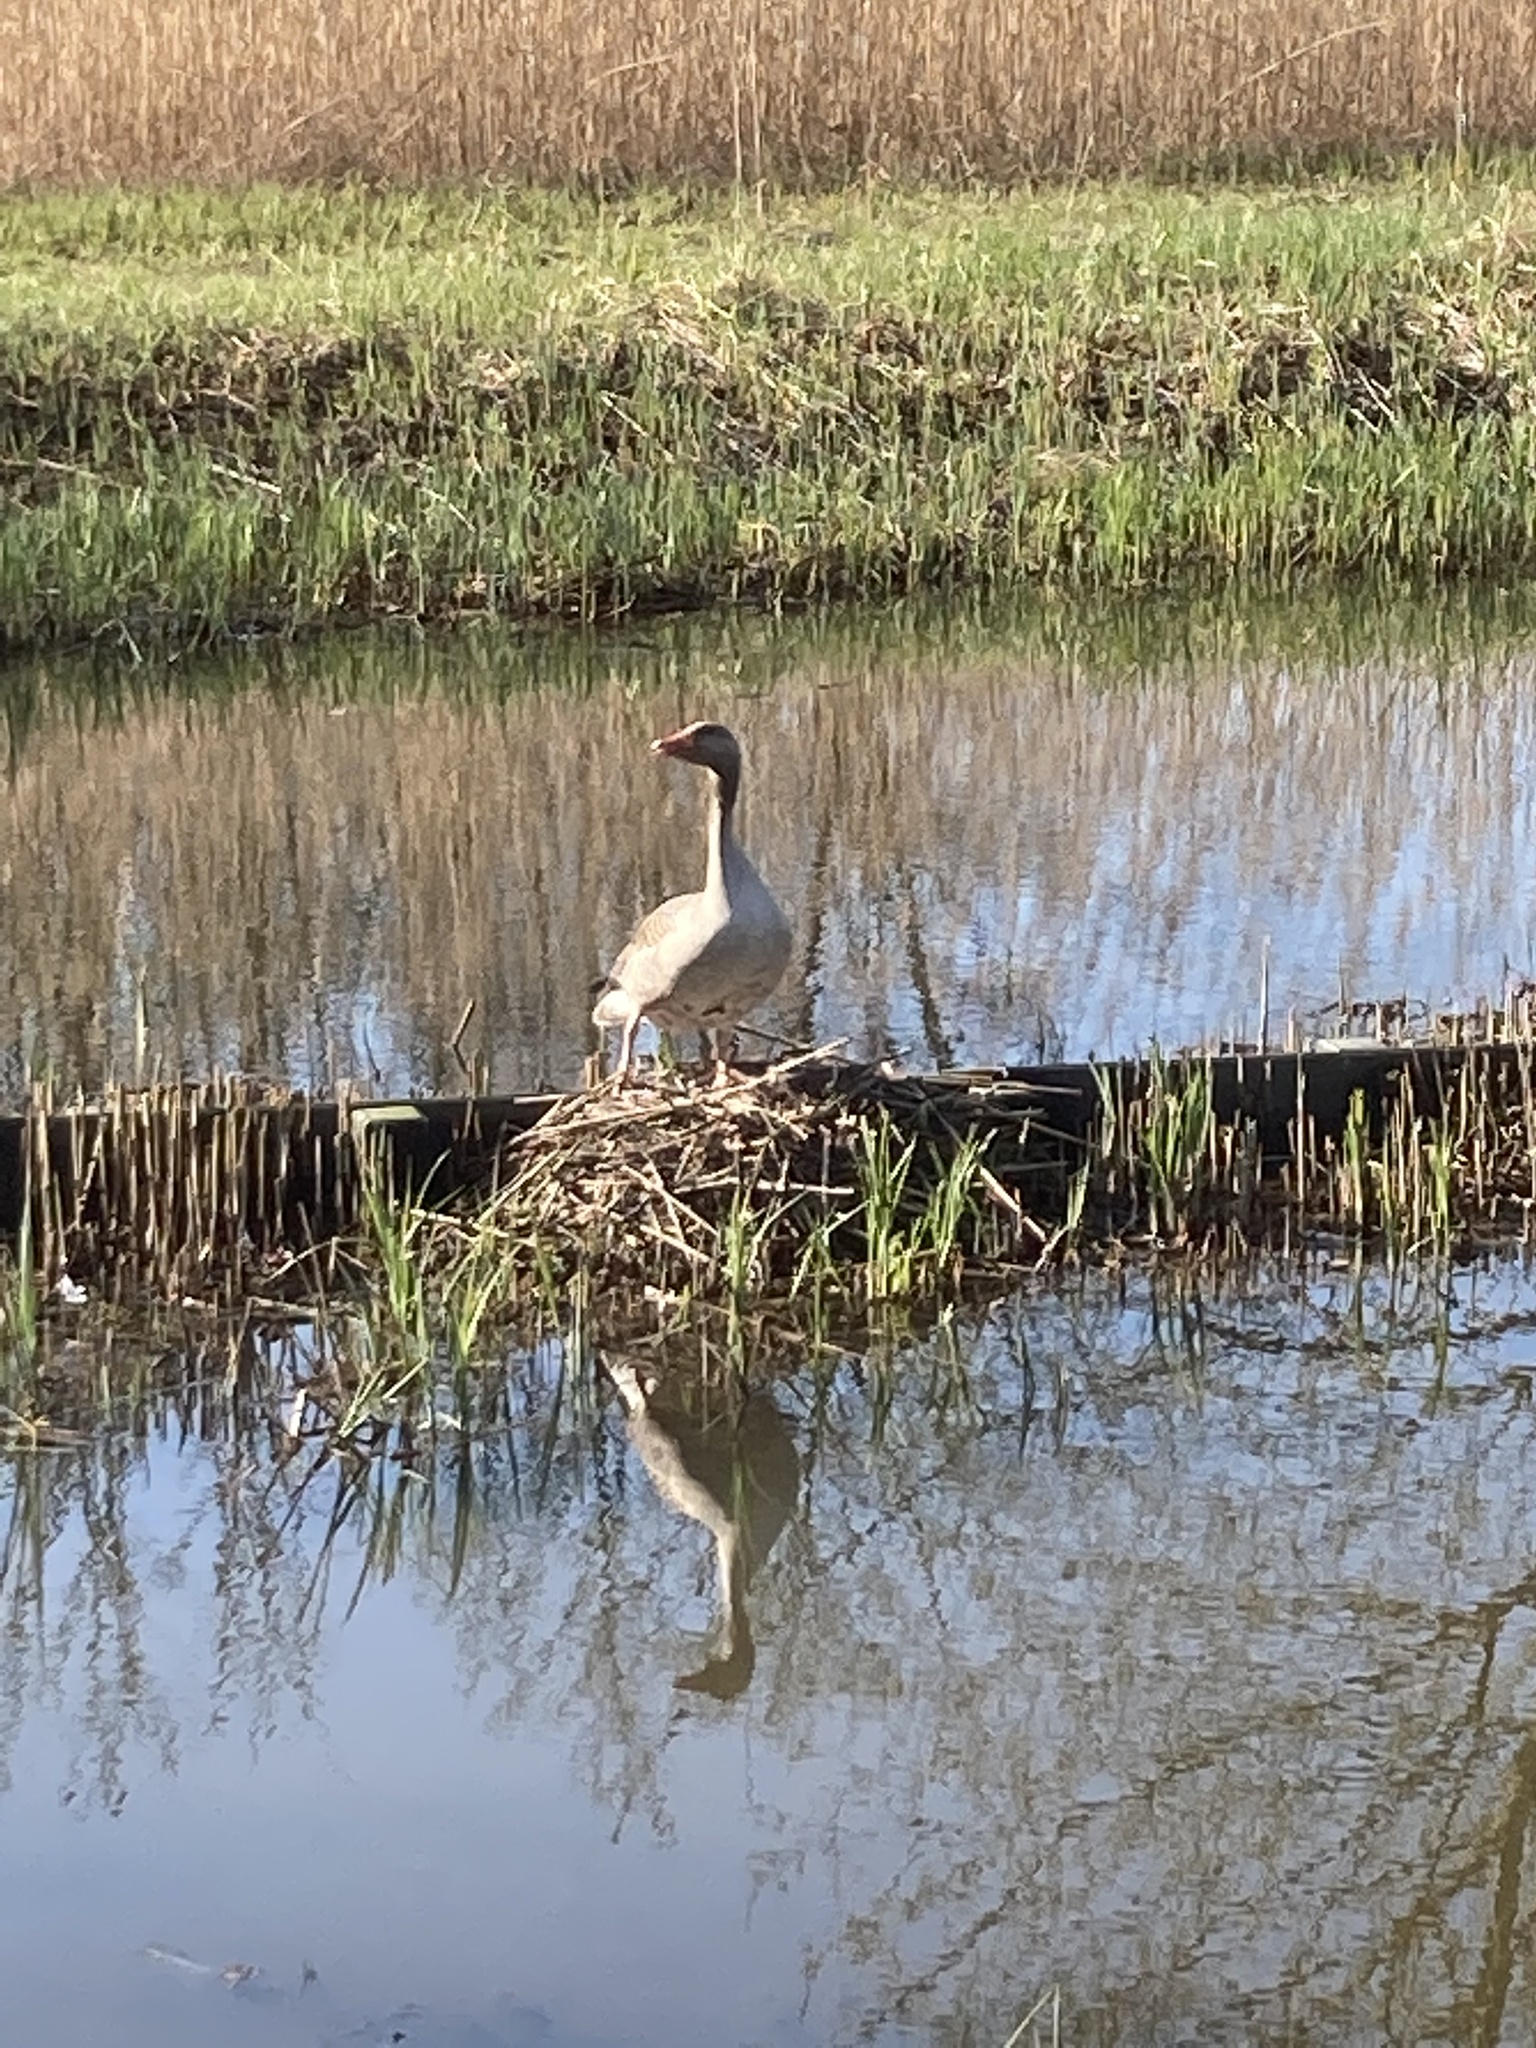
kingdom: Animalia
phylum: Chordata
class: Aves
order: Anseriformes
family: Anatidae
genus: Anser
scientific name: Anser anser
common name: Greylag goose
